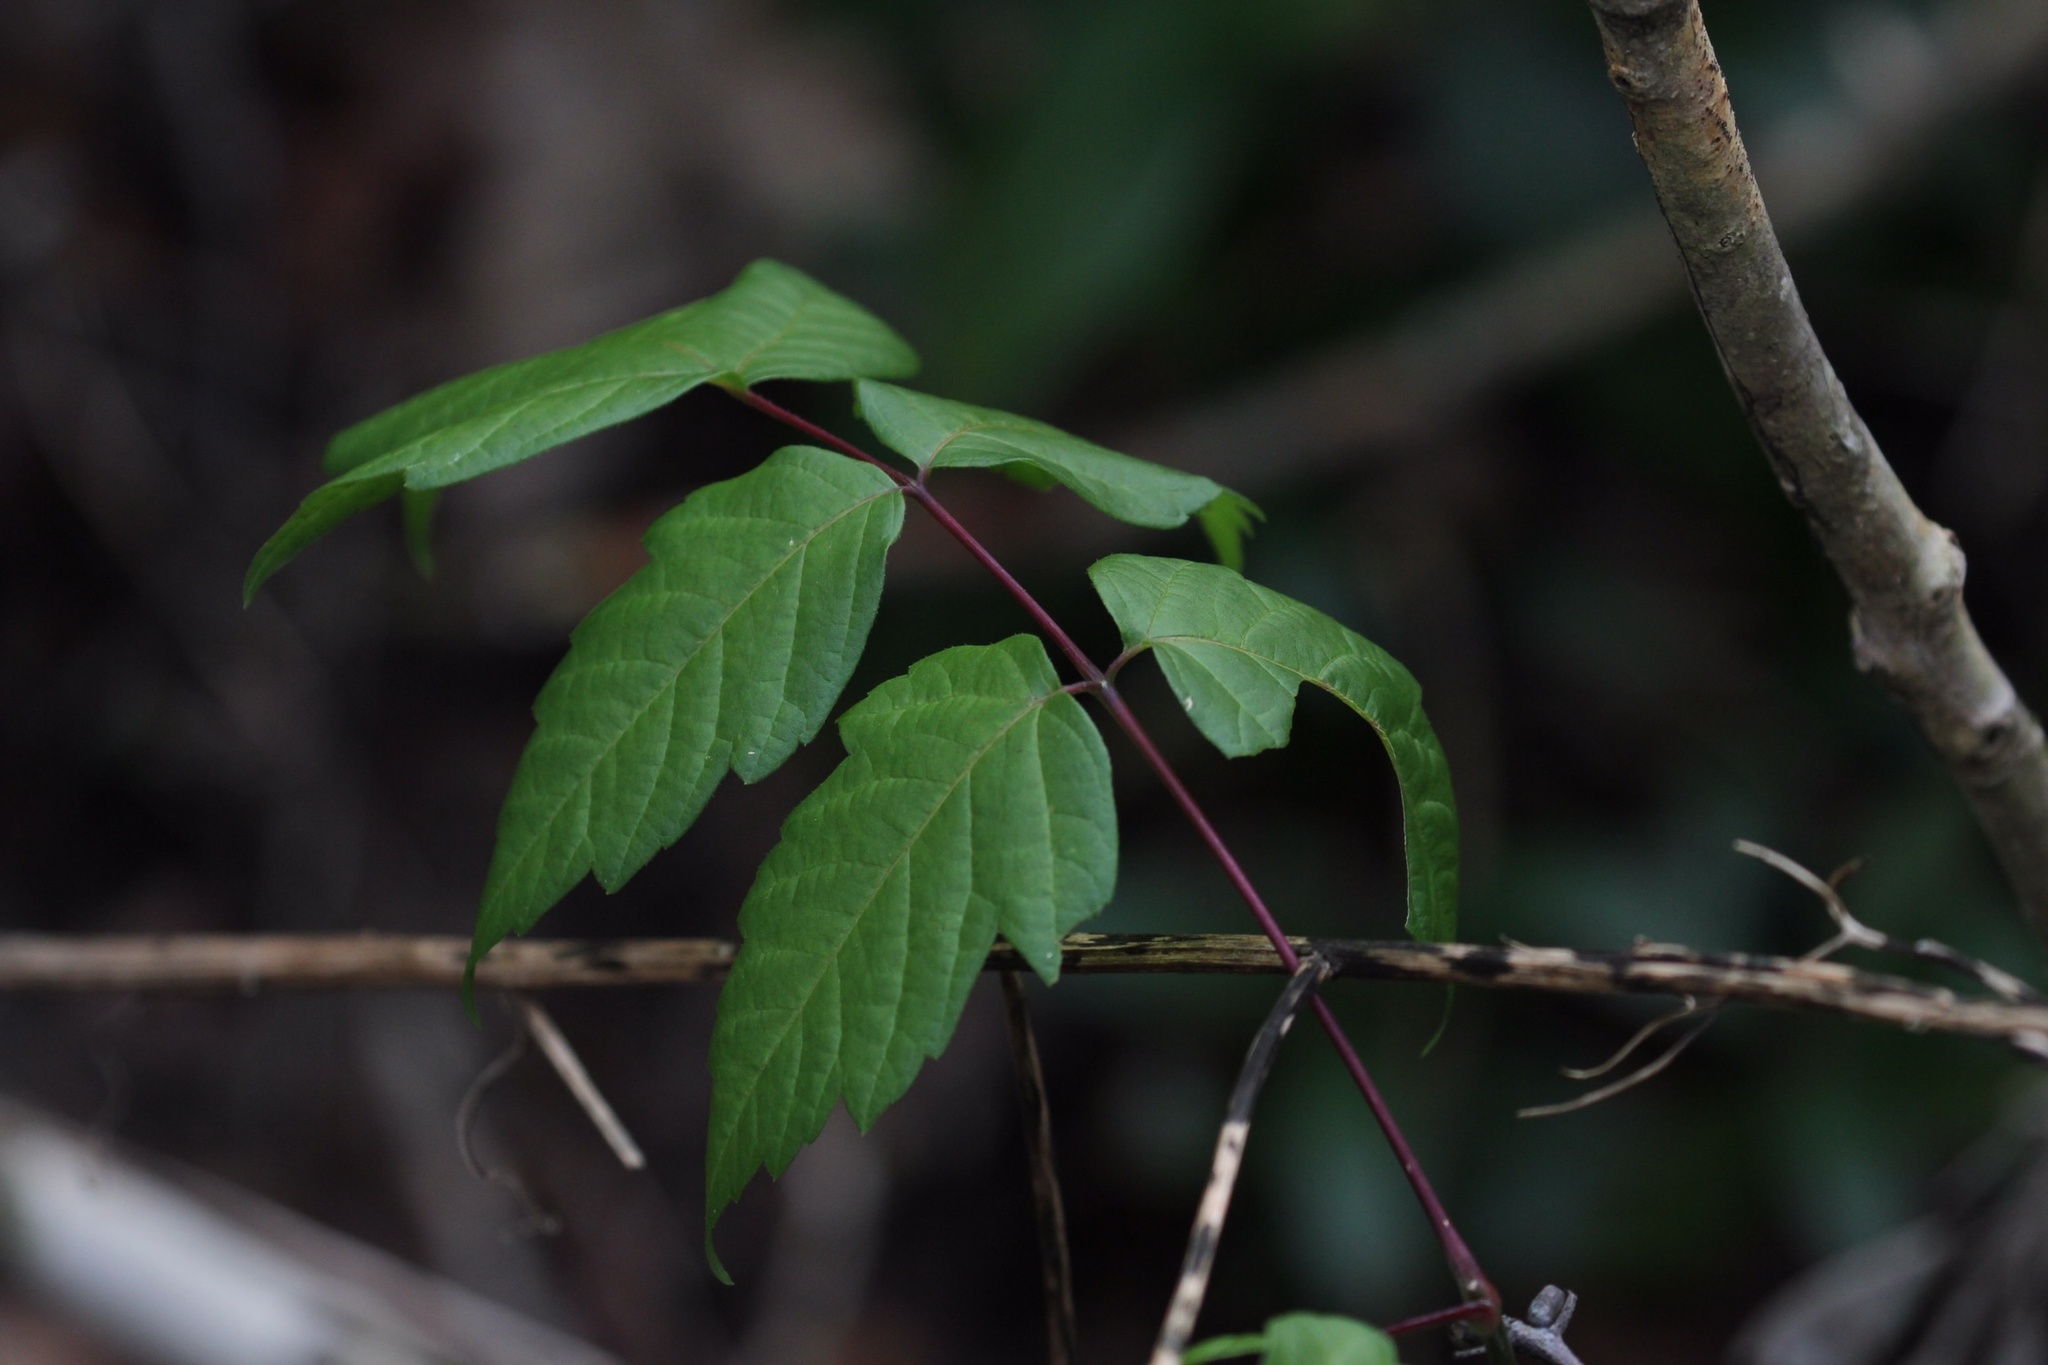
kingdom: Plantae
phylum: Tracheophyta
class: Magnoliopsida
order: Sapindales
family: Sapindaceae
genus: Acer
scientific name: Acer negundo
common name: Ashleaf maple
